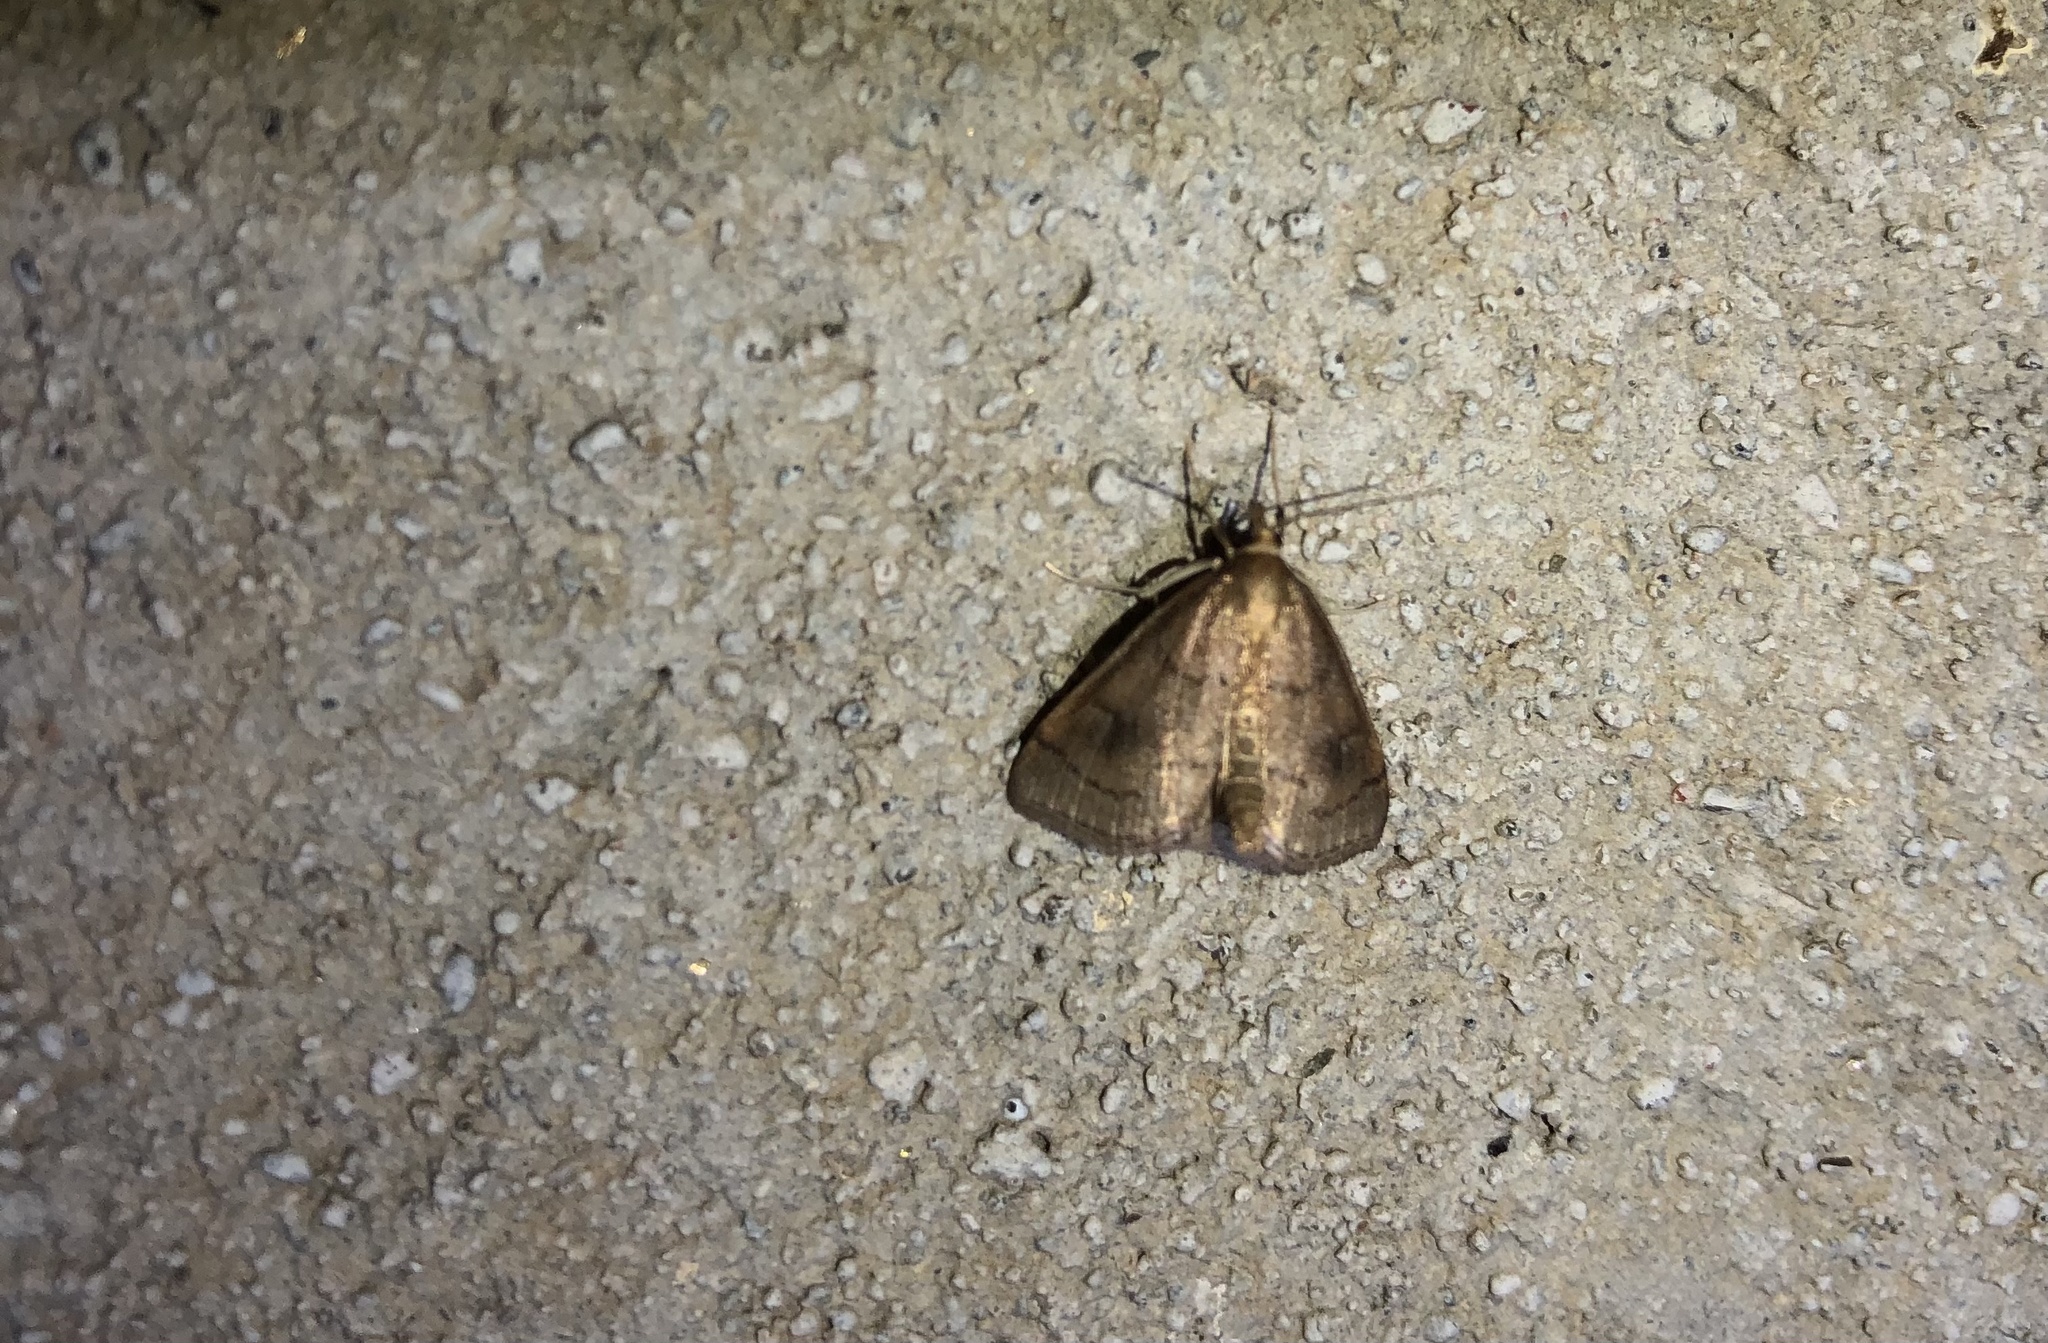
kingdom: Animalia
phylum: Arthropoda
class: Insecta
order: Lepidoptera
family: Crambidae
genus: Fumibotys
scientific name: Fumibotys fumalis
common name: Mint root borer moth
